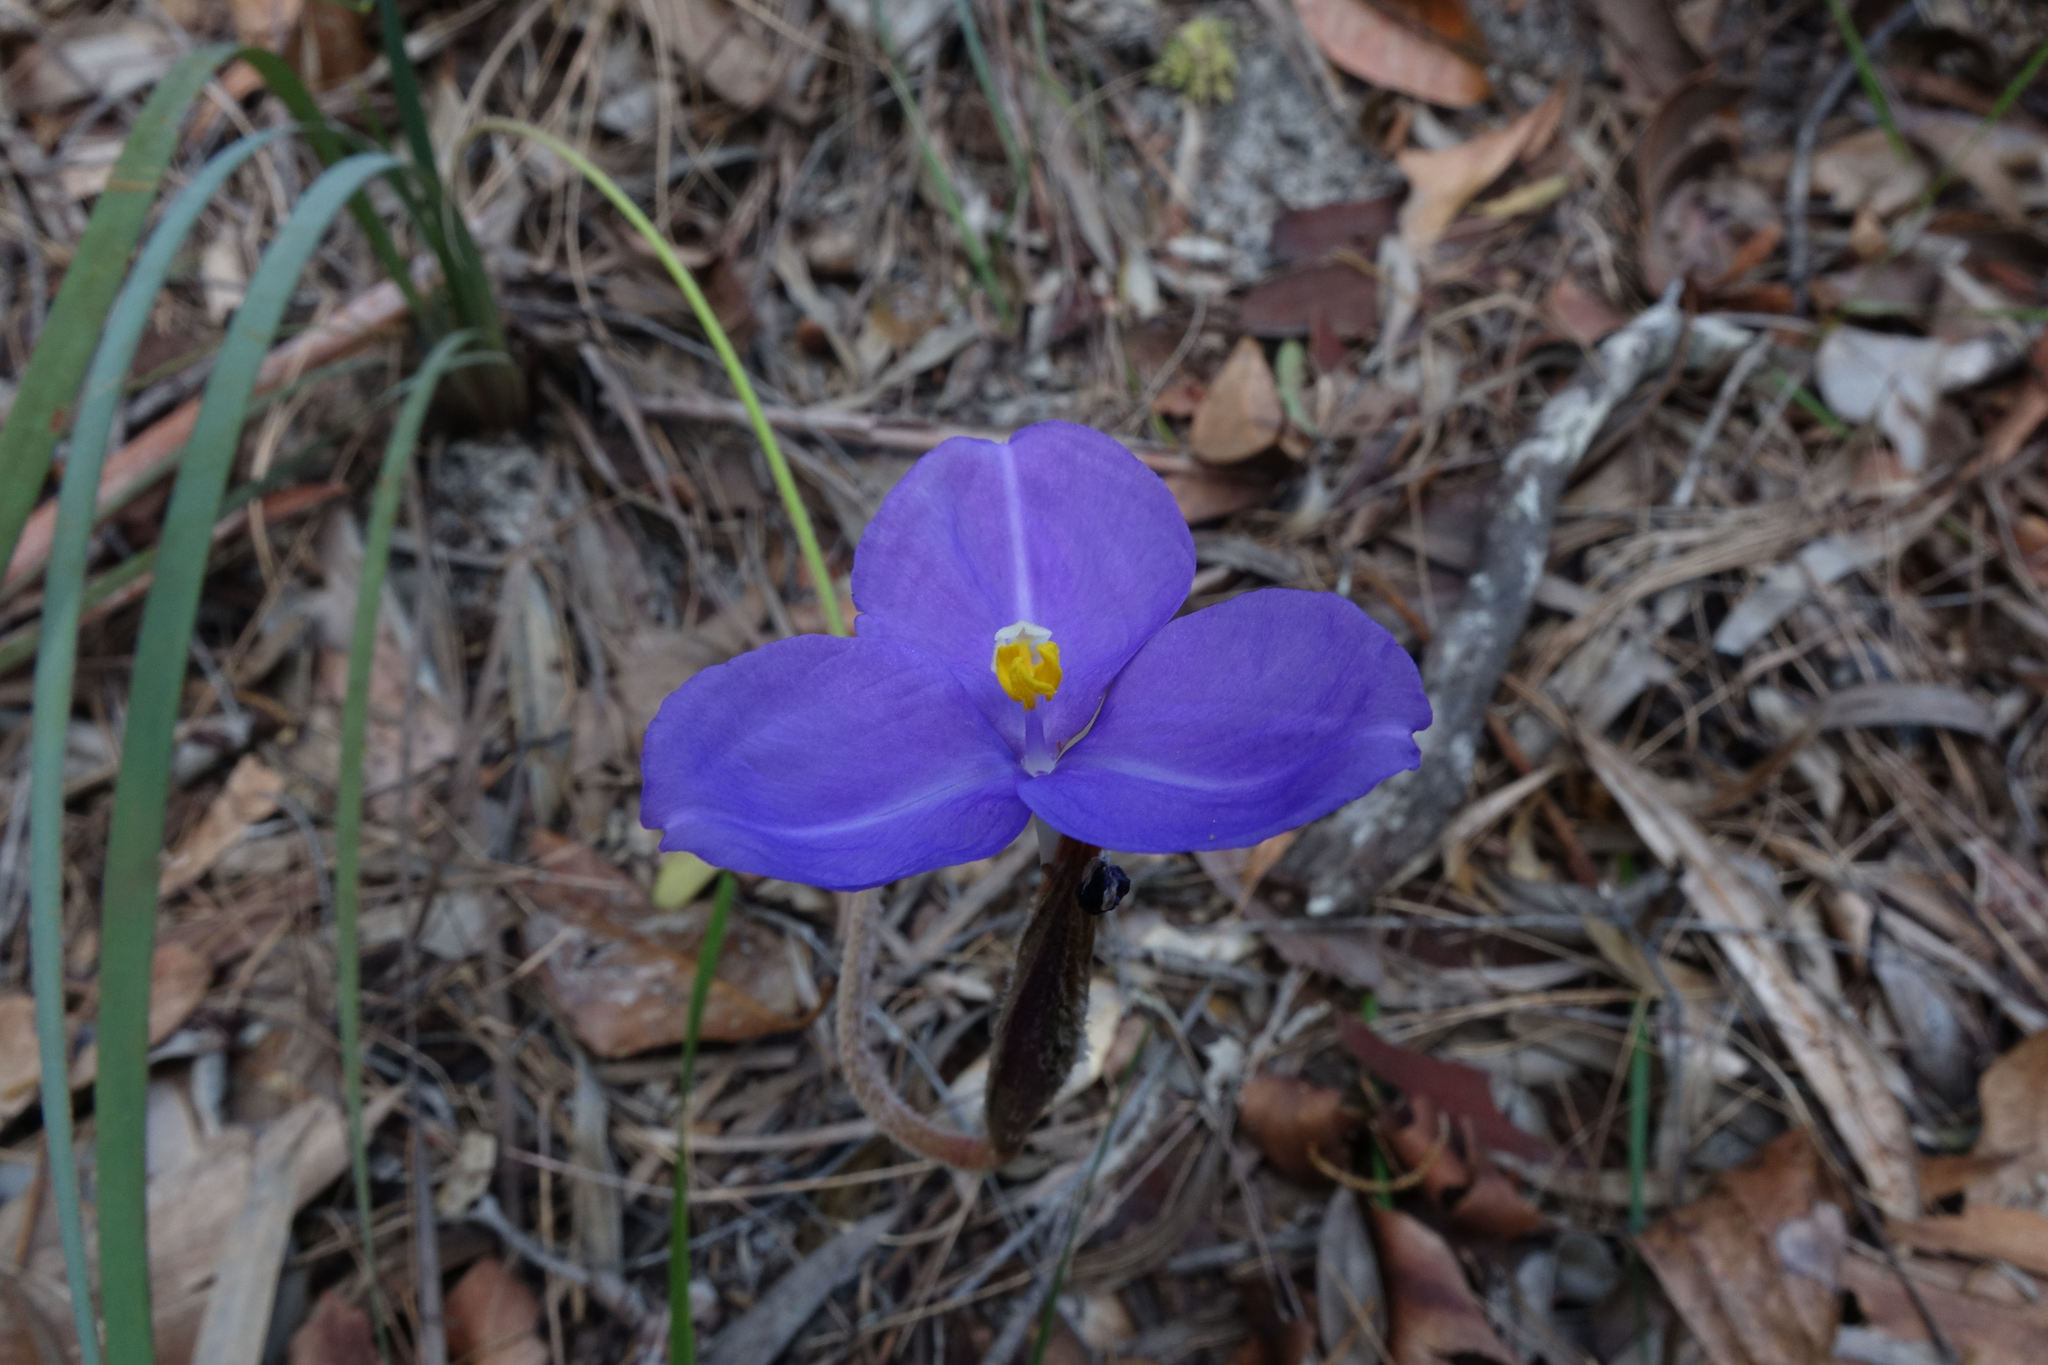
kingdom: Plantae
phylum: Tracheophyta
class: Liliopsida
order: Asparagales
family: Iridaceae
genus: Patersonia
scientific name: Patersonia sericea
